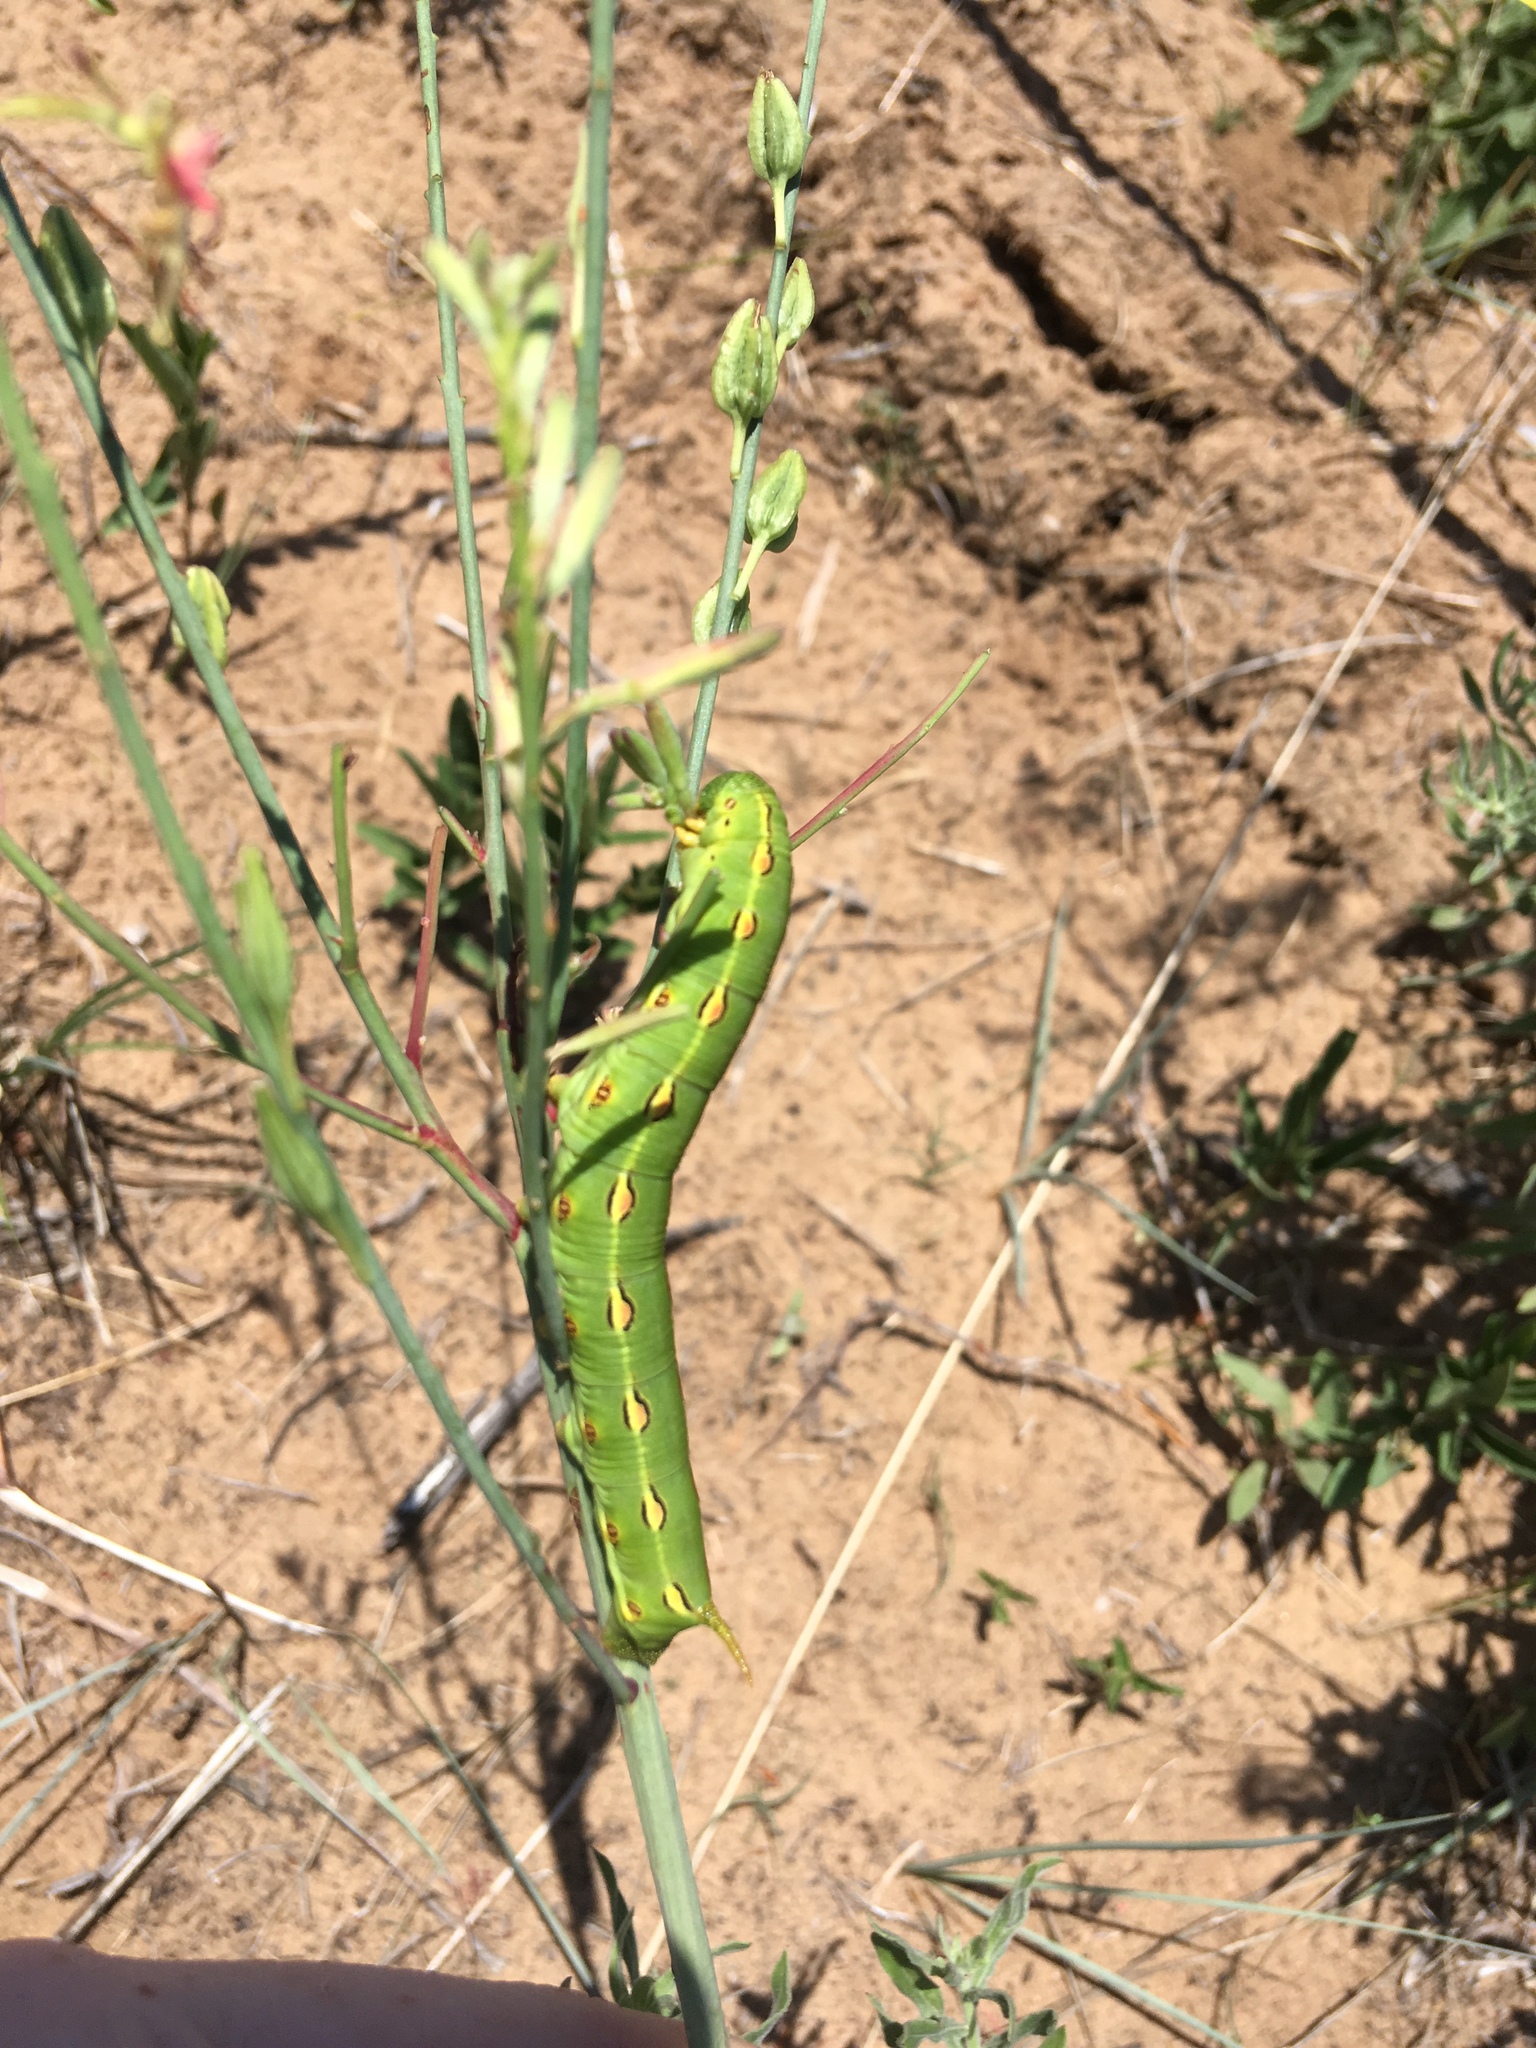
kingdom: Animalia
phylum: Arthropoda
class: Insecta
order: Lepidoptera
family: Sphingidae
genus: Hyles
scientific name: Hyles lineata
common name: White-lined sphinx
